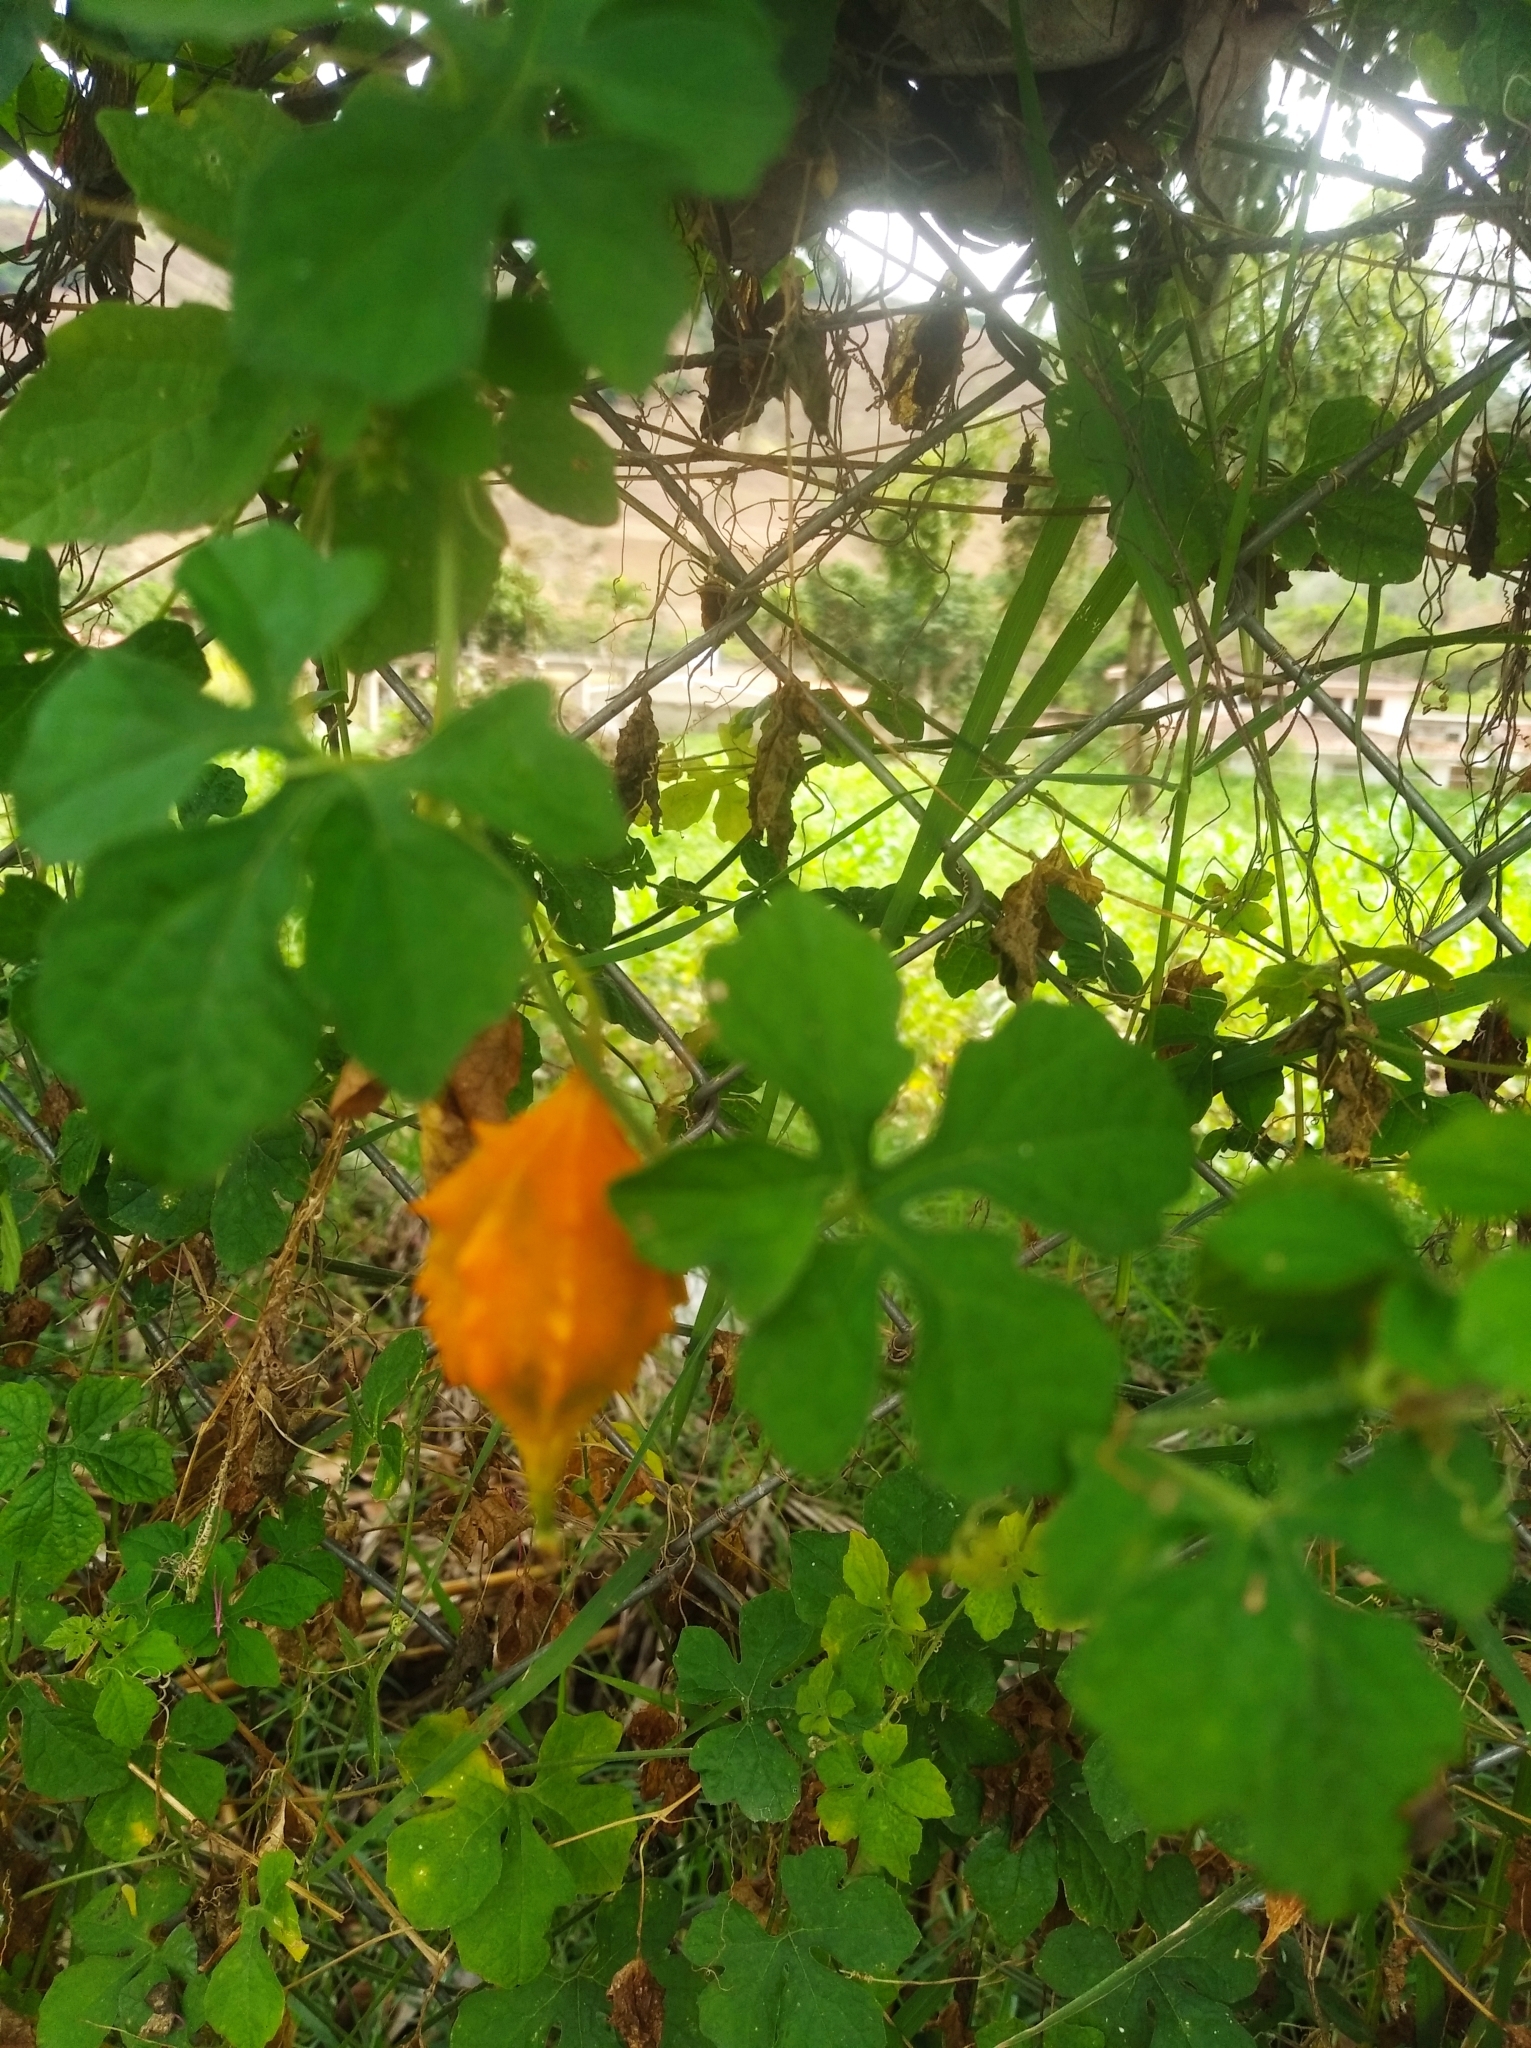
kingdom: Plantae
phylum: Tracheophyta
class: Magnoliopsida
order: Cucurbitales
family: Cucurbitaceae
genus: Momordica
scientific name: Momordica charantia
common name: Balsampear
